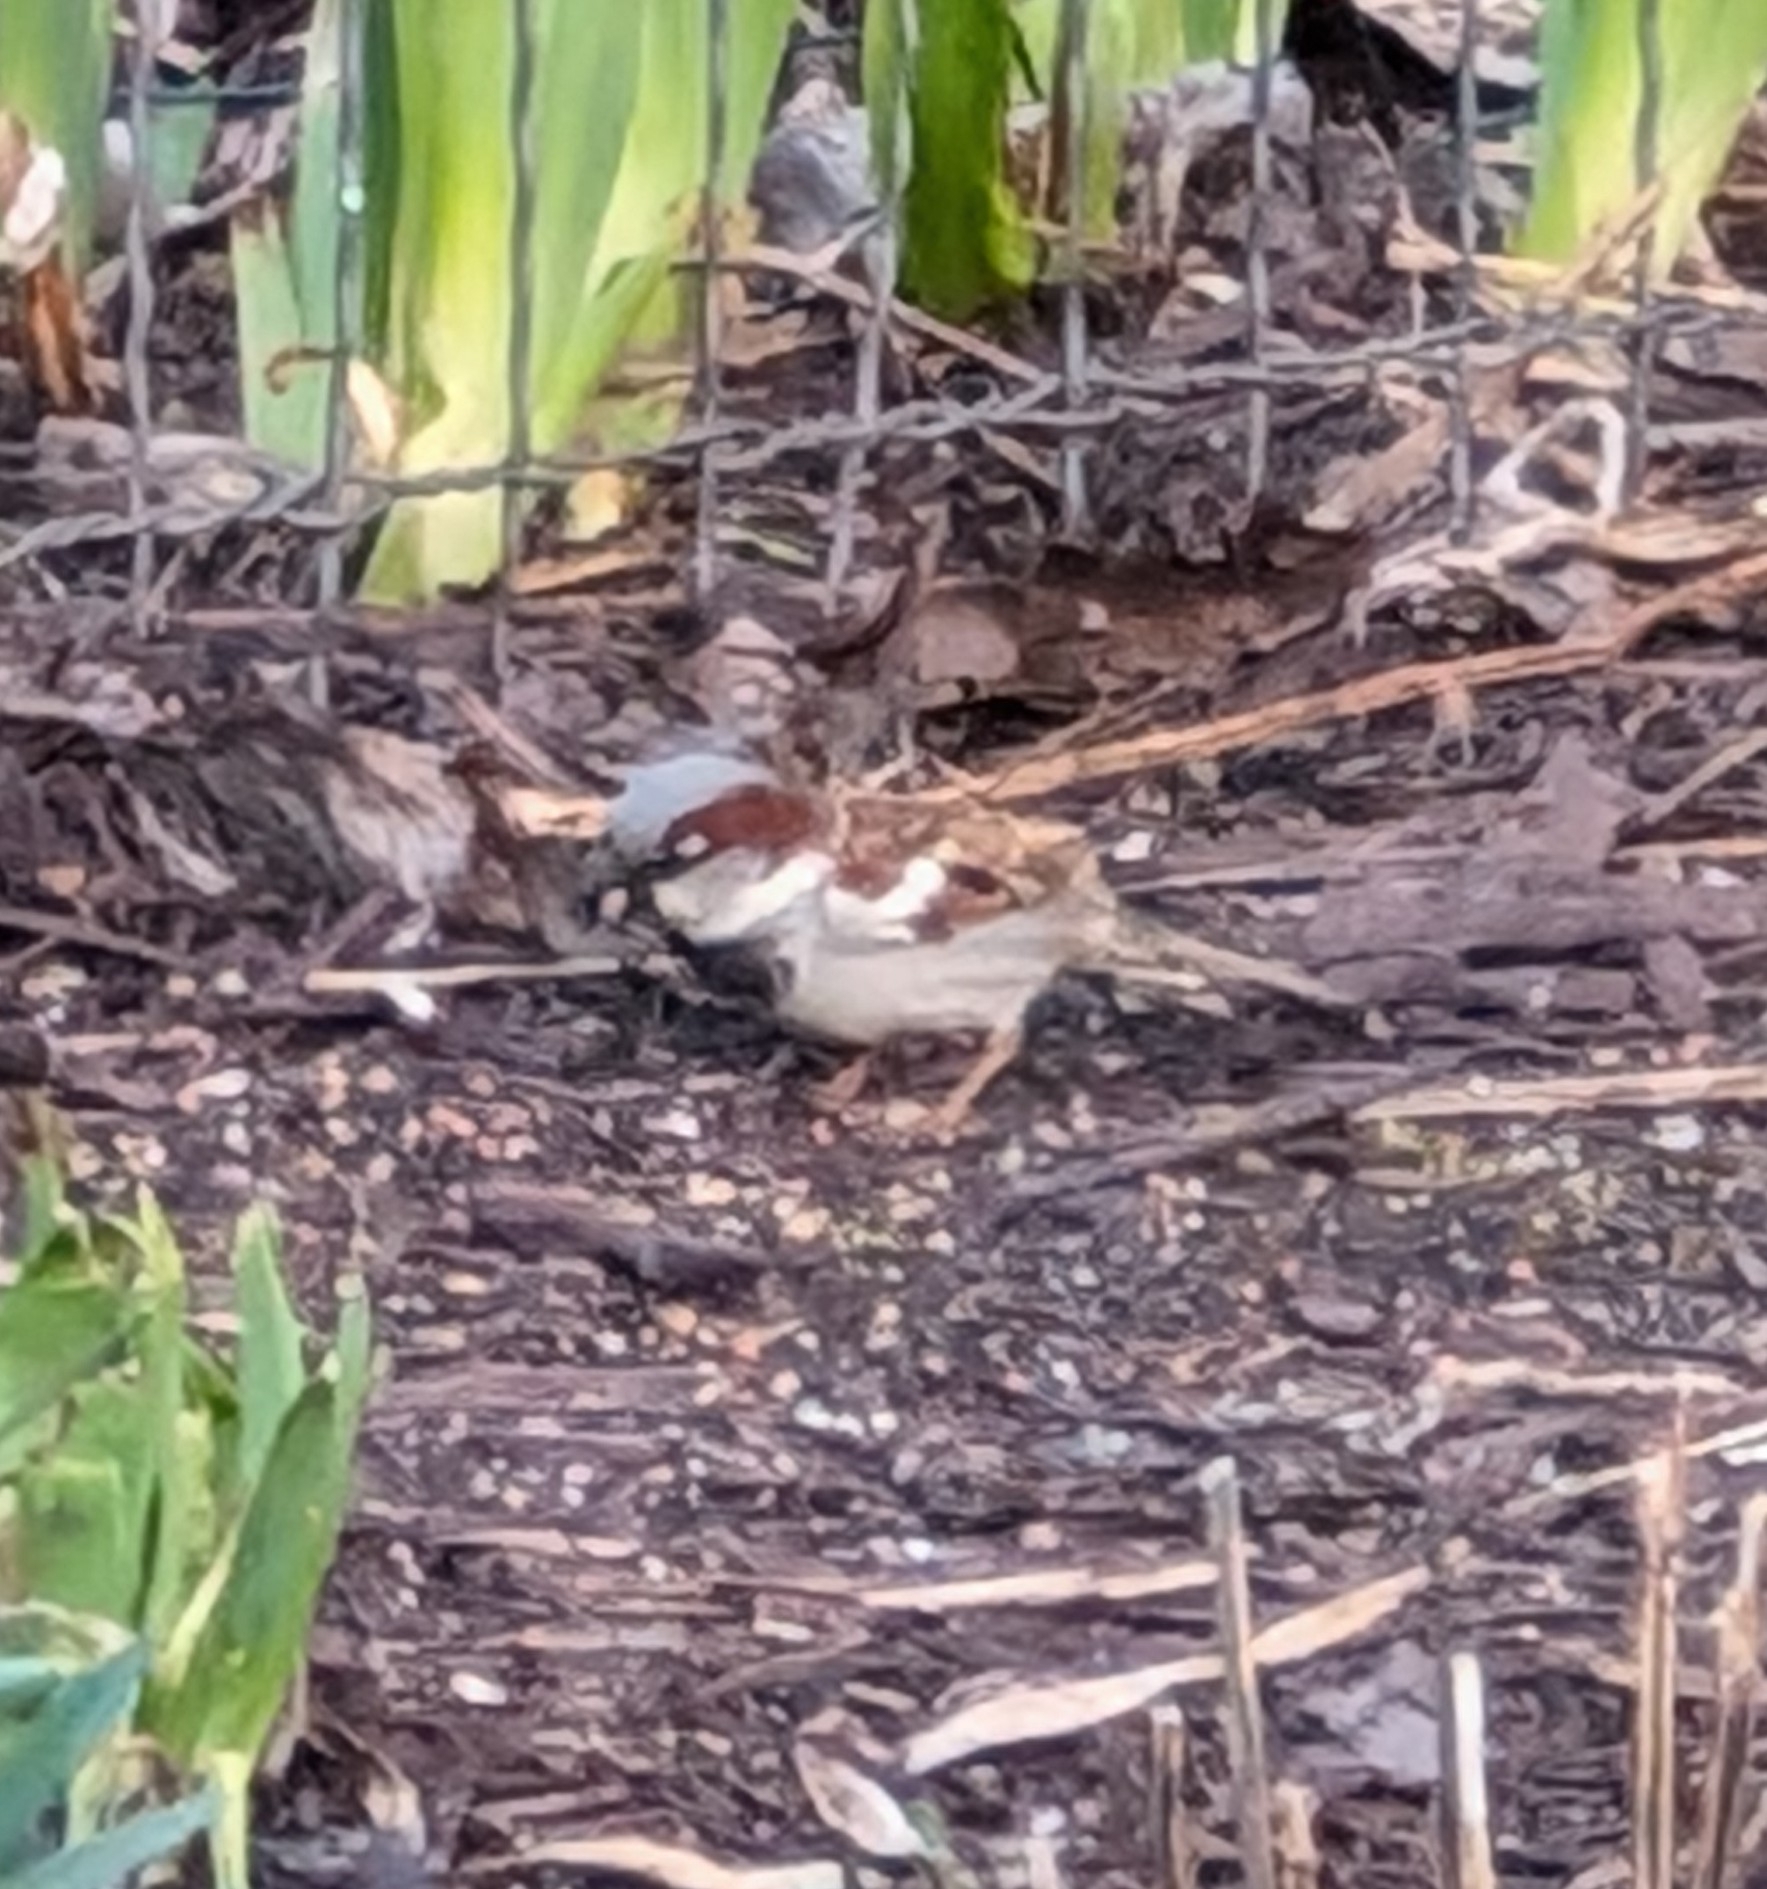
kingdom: Animalia
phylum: Chordata
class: Aves
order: Passeriformes
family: Passeridae
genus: Passer
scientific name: Passer domesticus
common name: House sparrow
